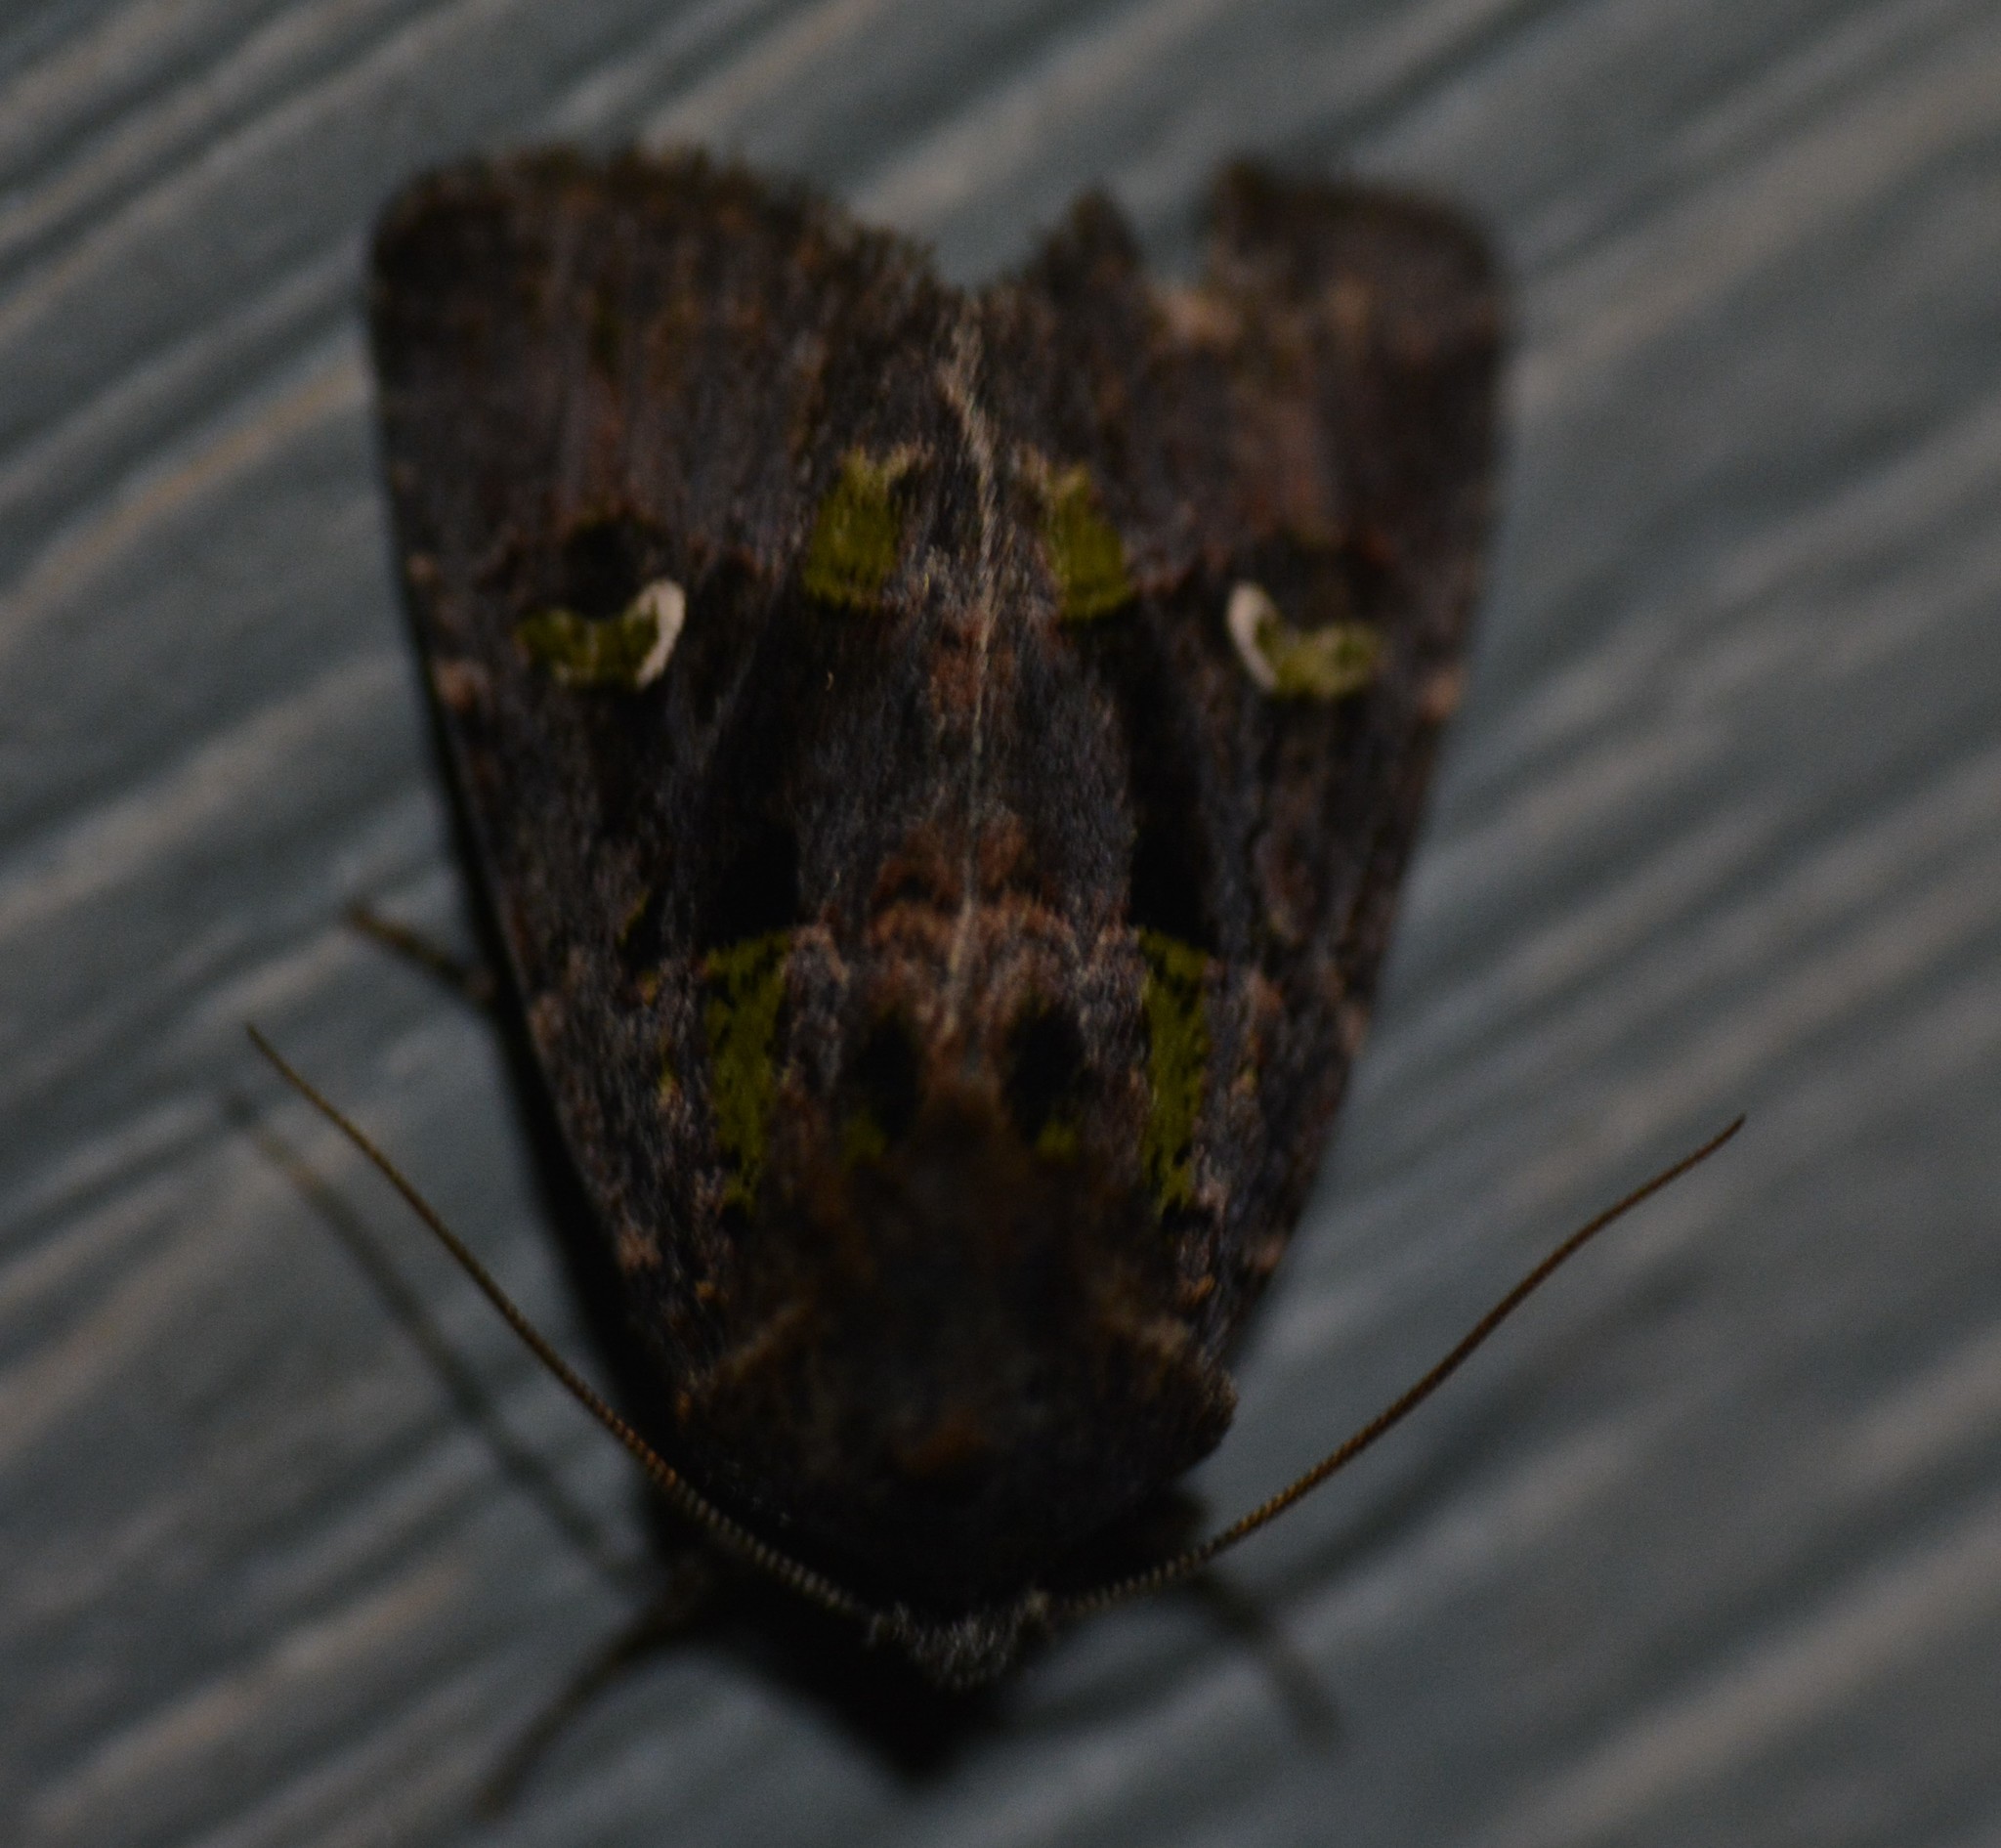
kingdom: Animalia
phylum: Arthropoda
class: Insecta
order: Lepidoptera
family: Noctuidae
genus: Lacinipolia
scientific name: Lacinipolia renigera
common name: Kidney-spotted minor
